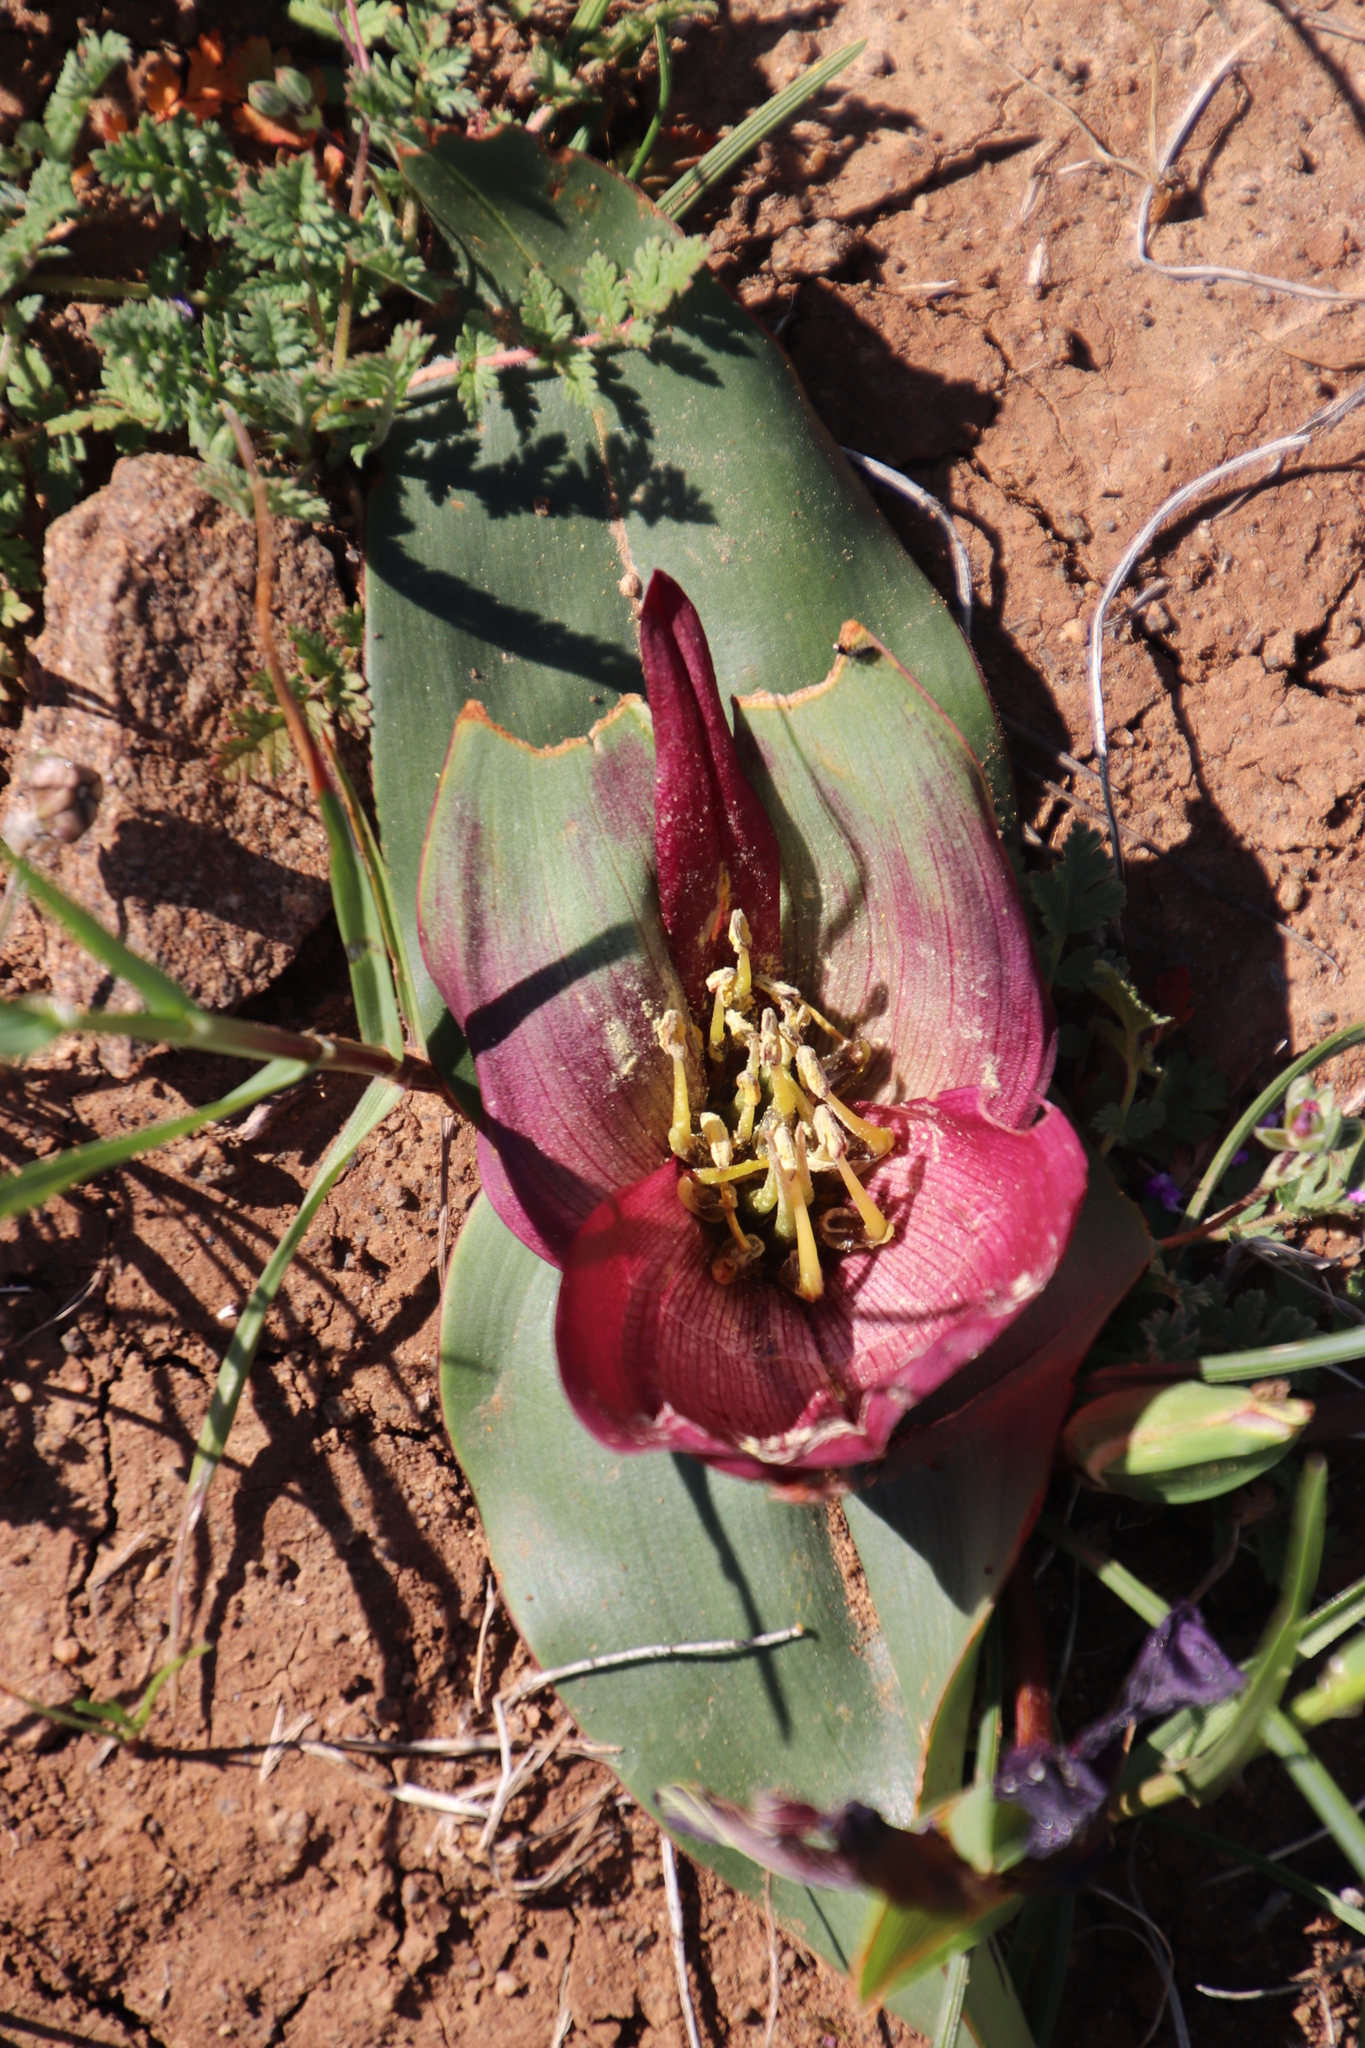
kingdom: Plantae
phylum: Tracheophyta
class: Liliopsida
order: Liliales
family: Colchicaceae
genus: Colchicum
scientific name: Colchicum burchellii
